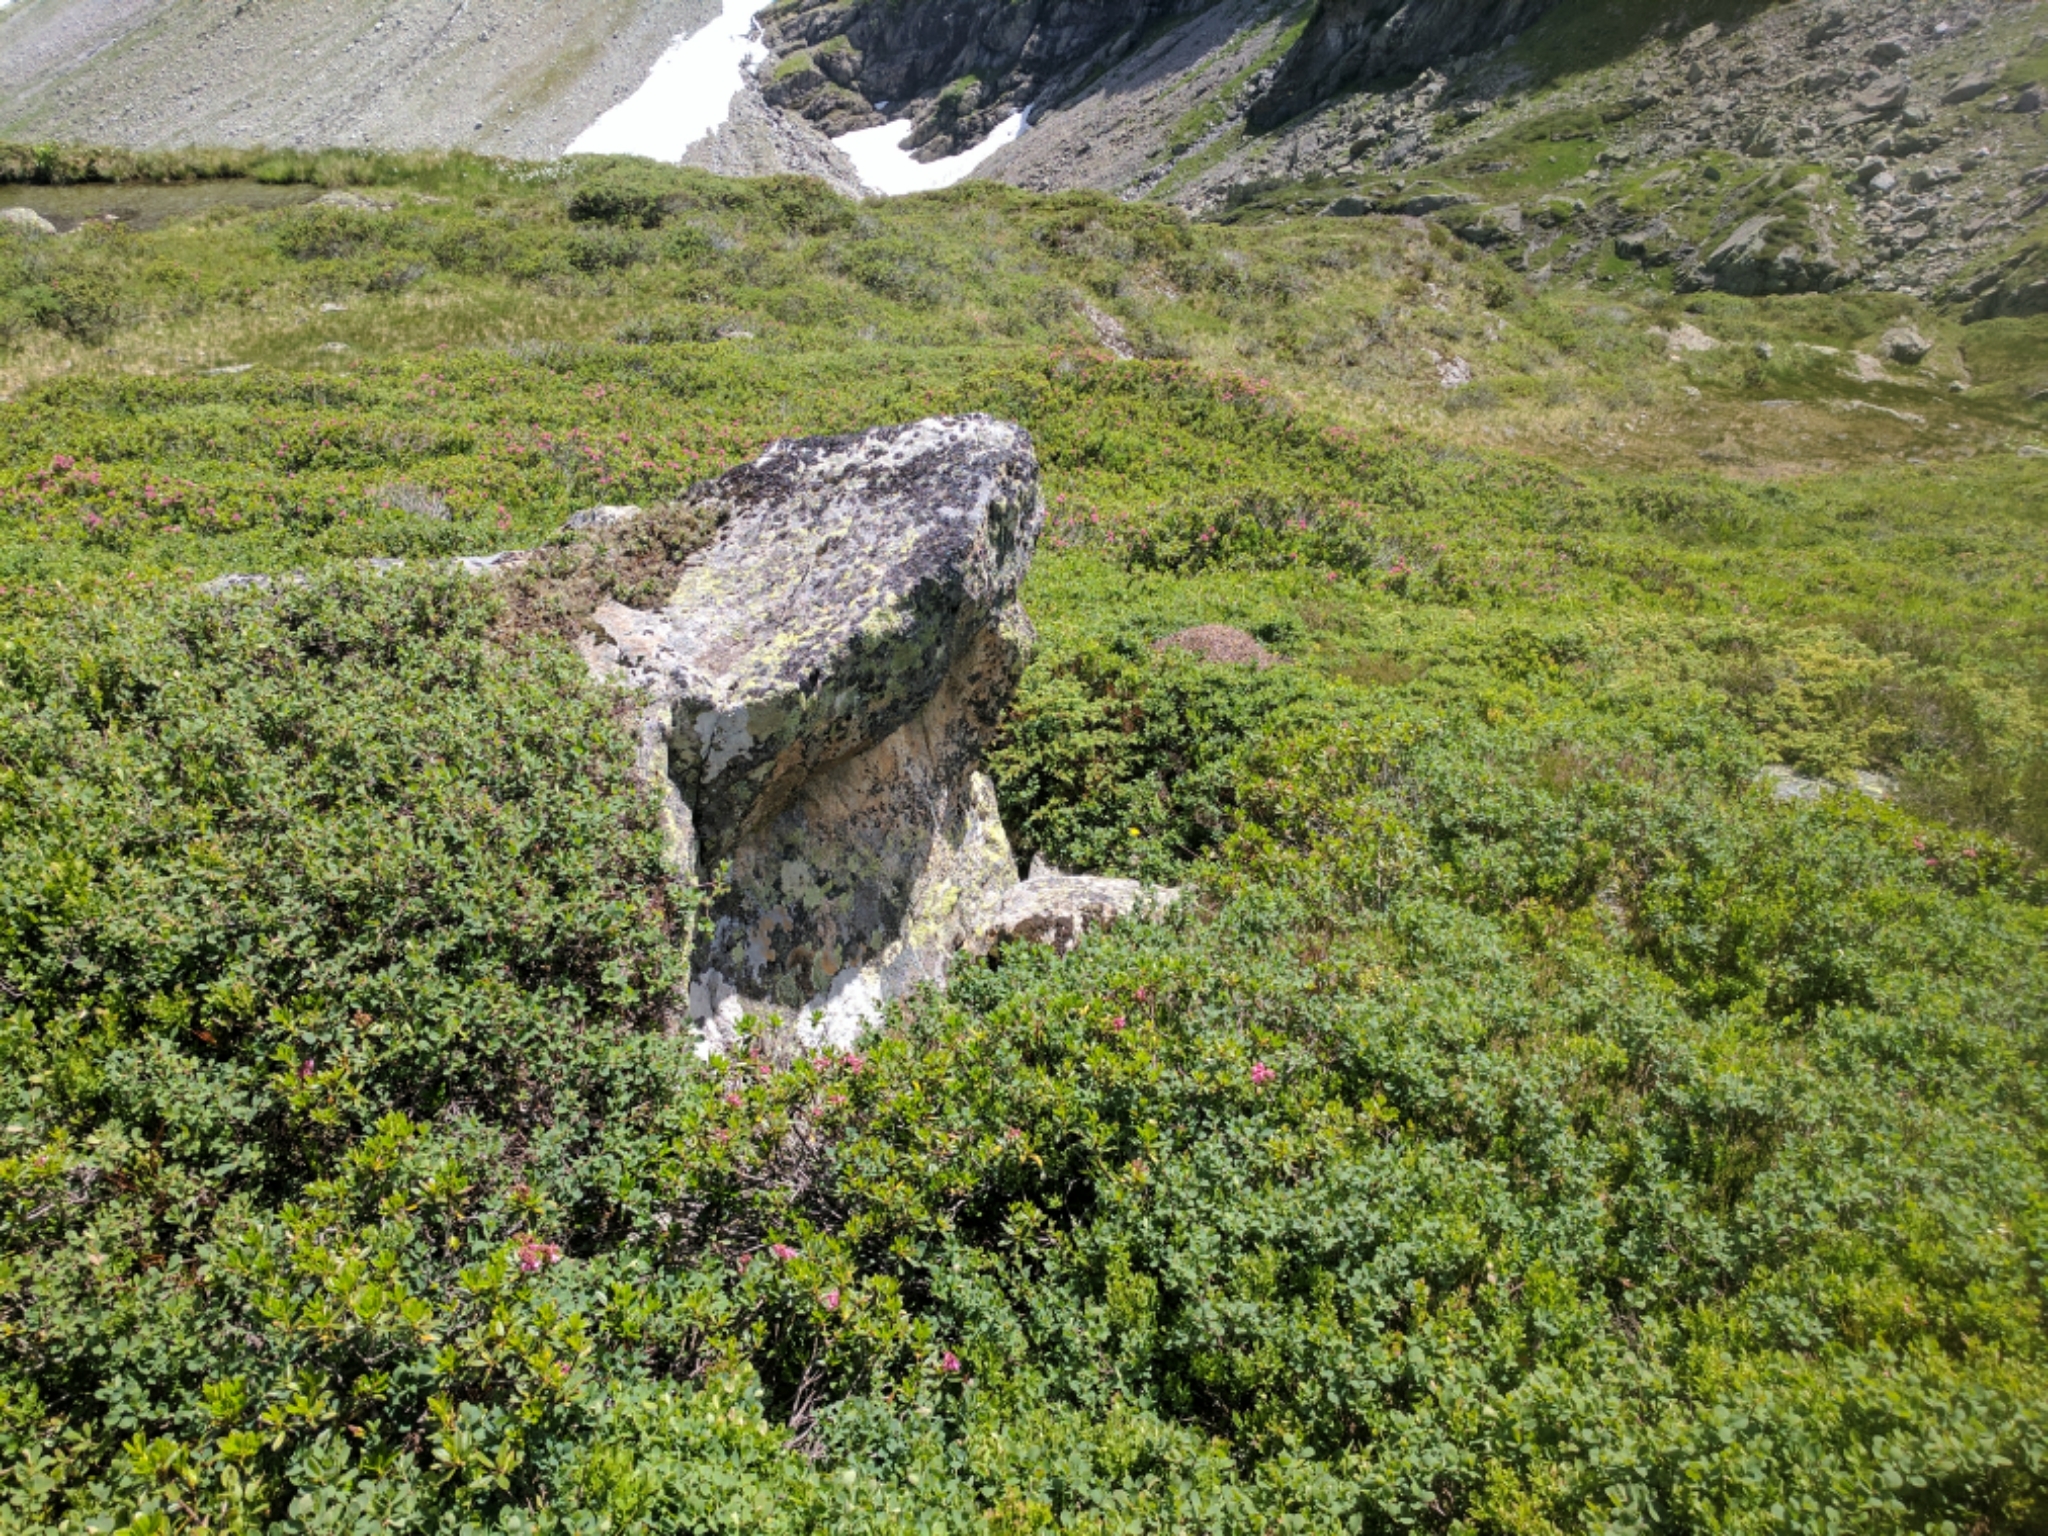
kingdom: Animalia
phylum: Arthropoda
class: Insecta
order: Hymenoptera
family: Formicidae
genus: Formica
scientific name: Formica lugubris
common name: Sinister mound ant
